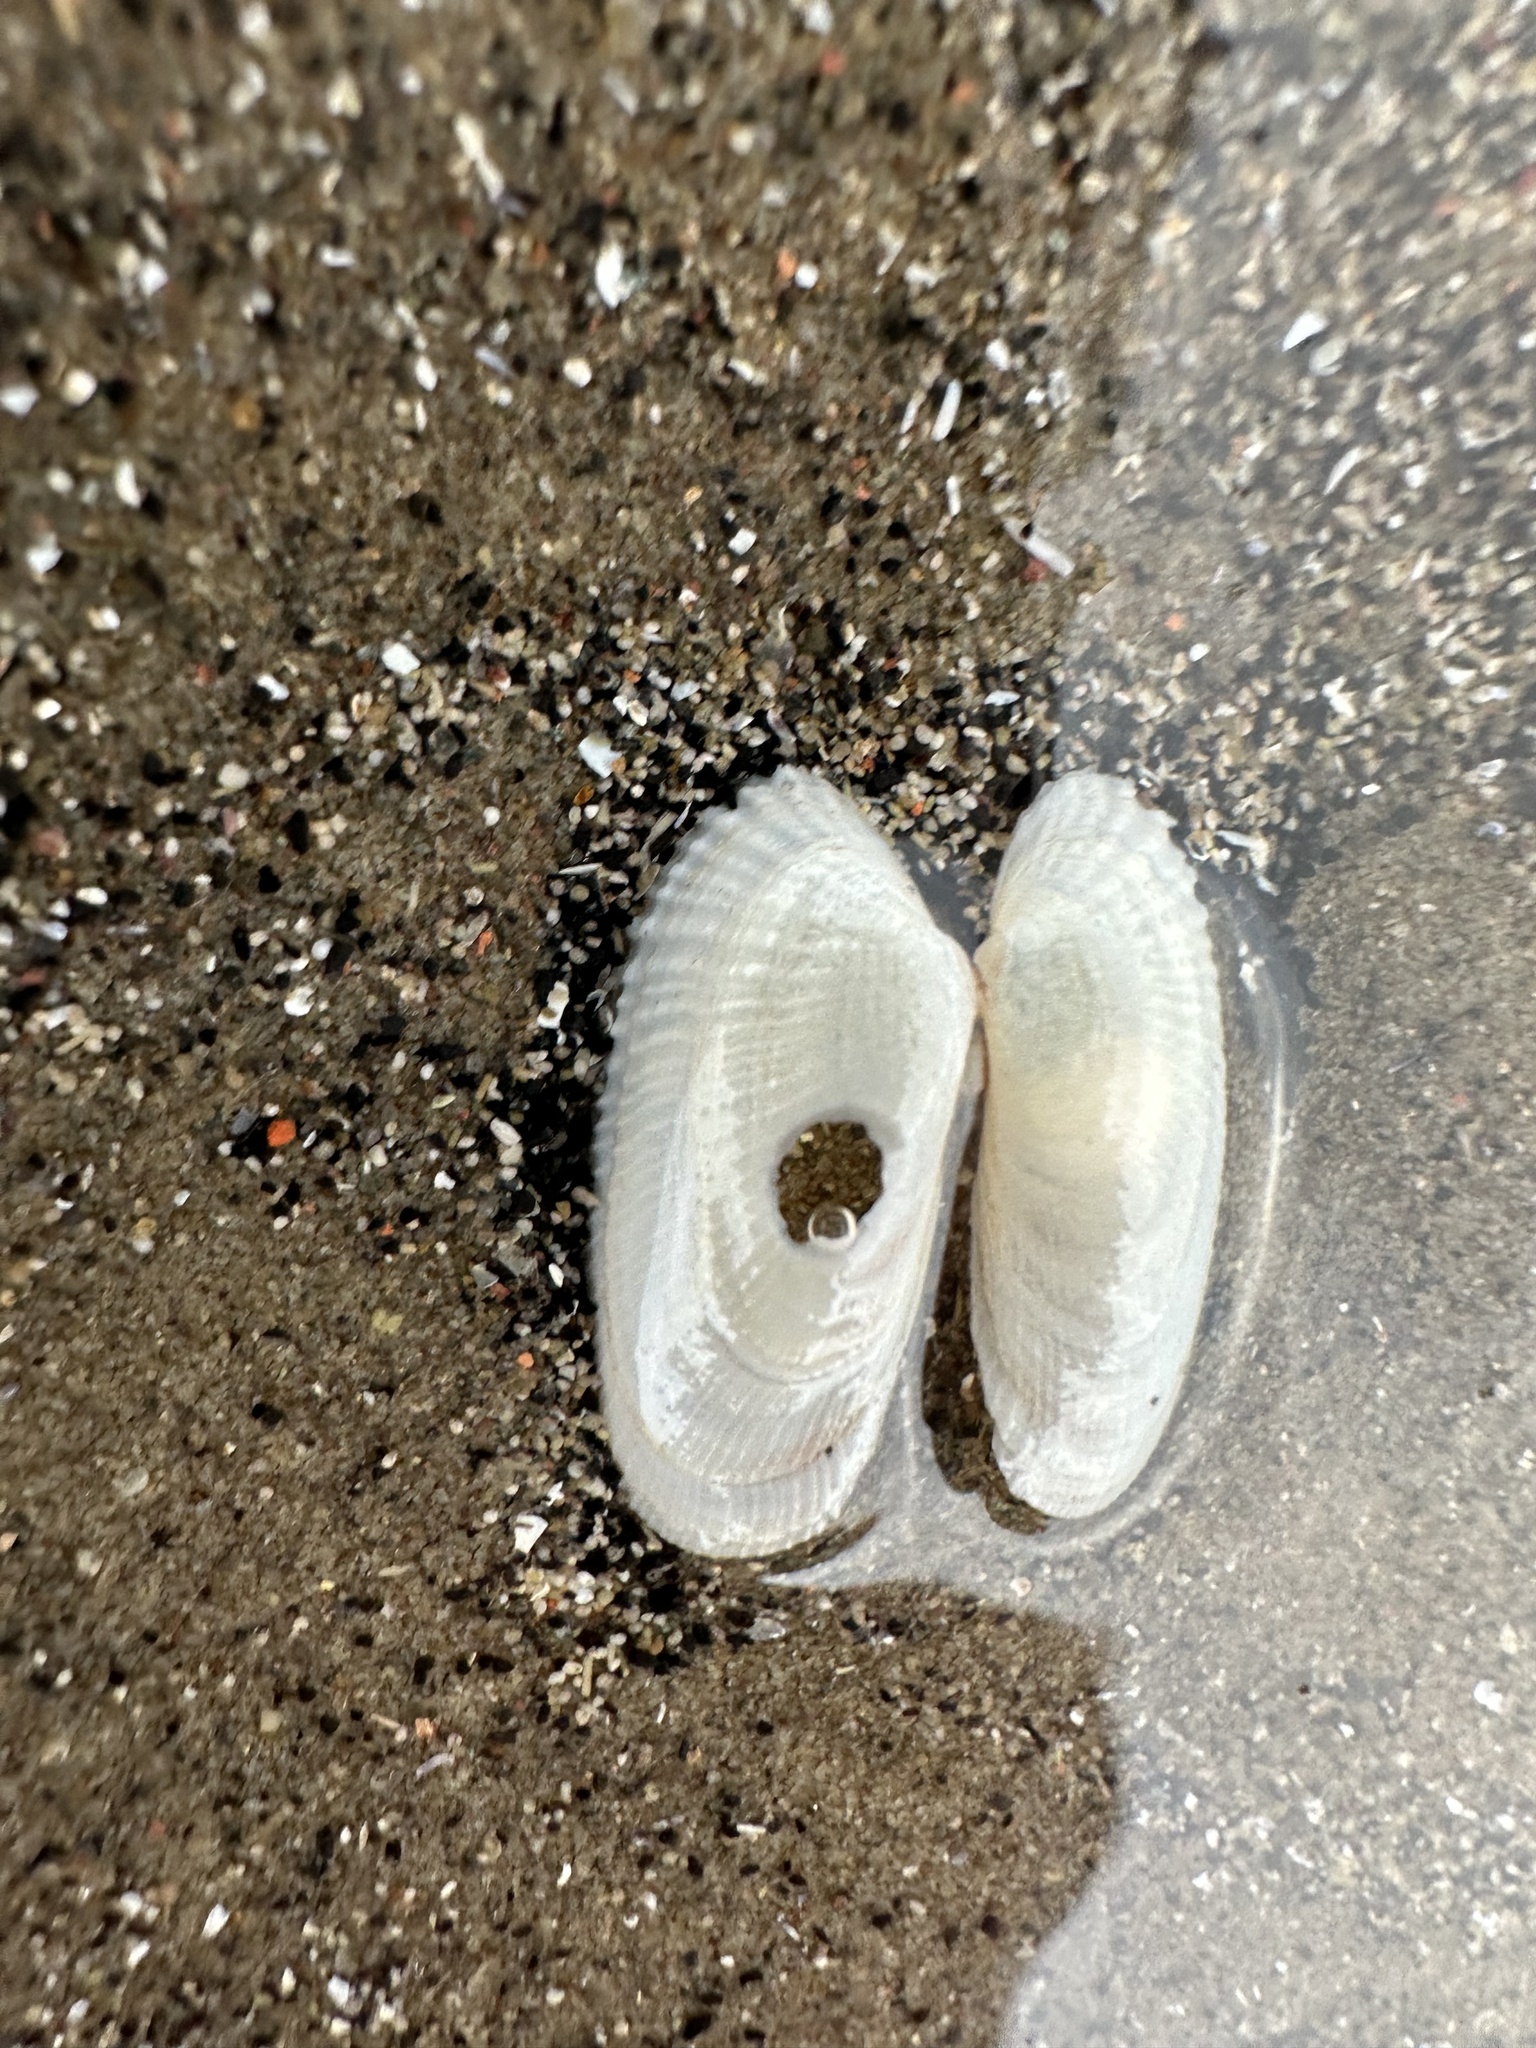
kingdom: Animalia
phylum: Mollusca
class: Bivalvia
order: Venerida
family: Veneridae
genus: Petricolaria
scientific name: Petricolaria pholadiformis
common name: American piddock
